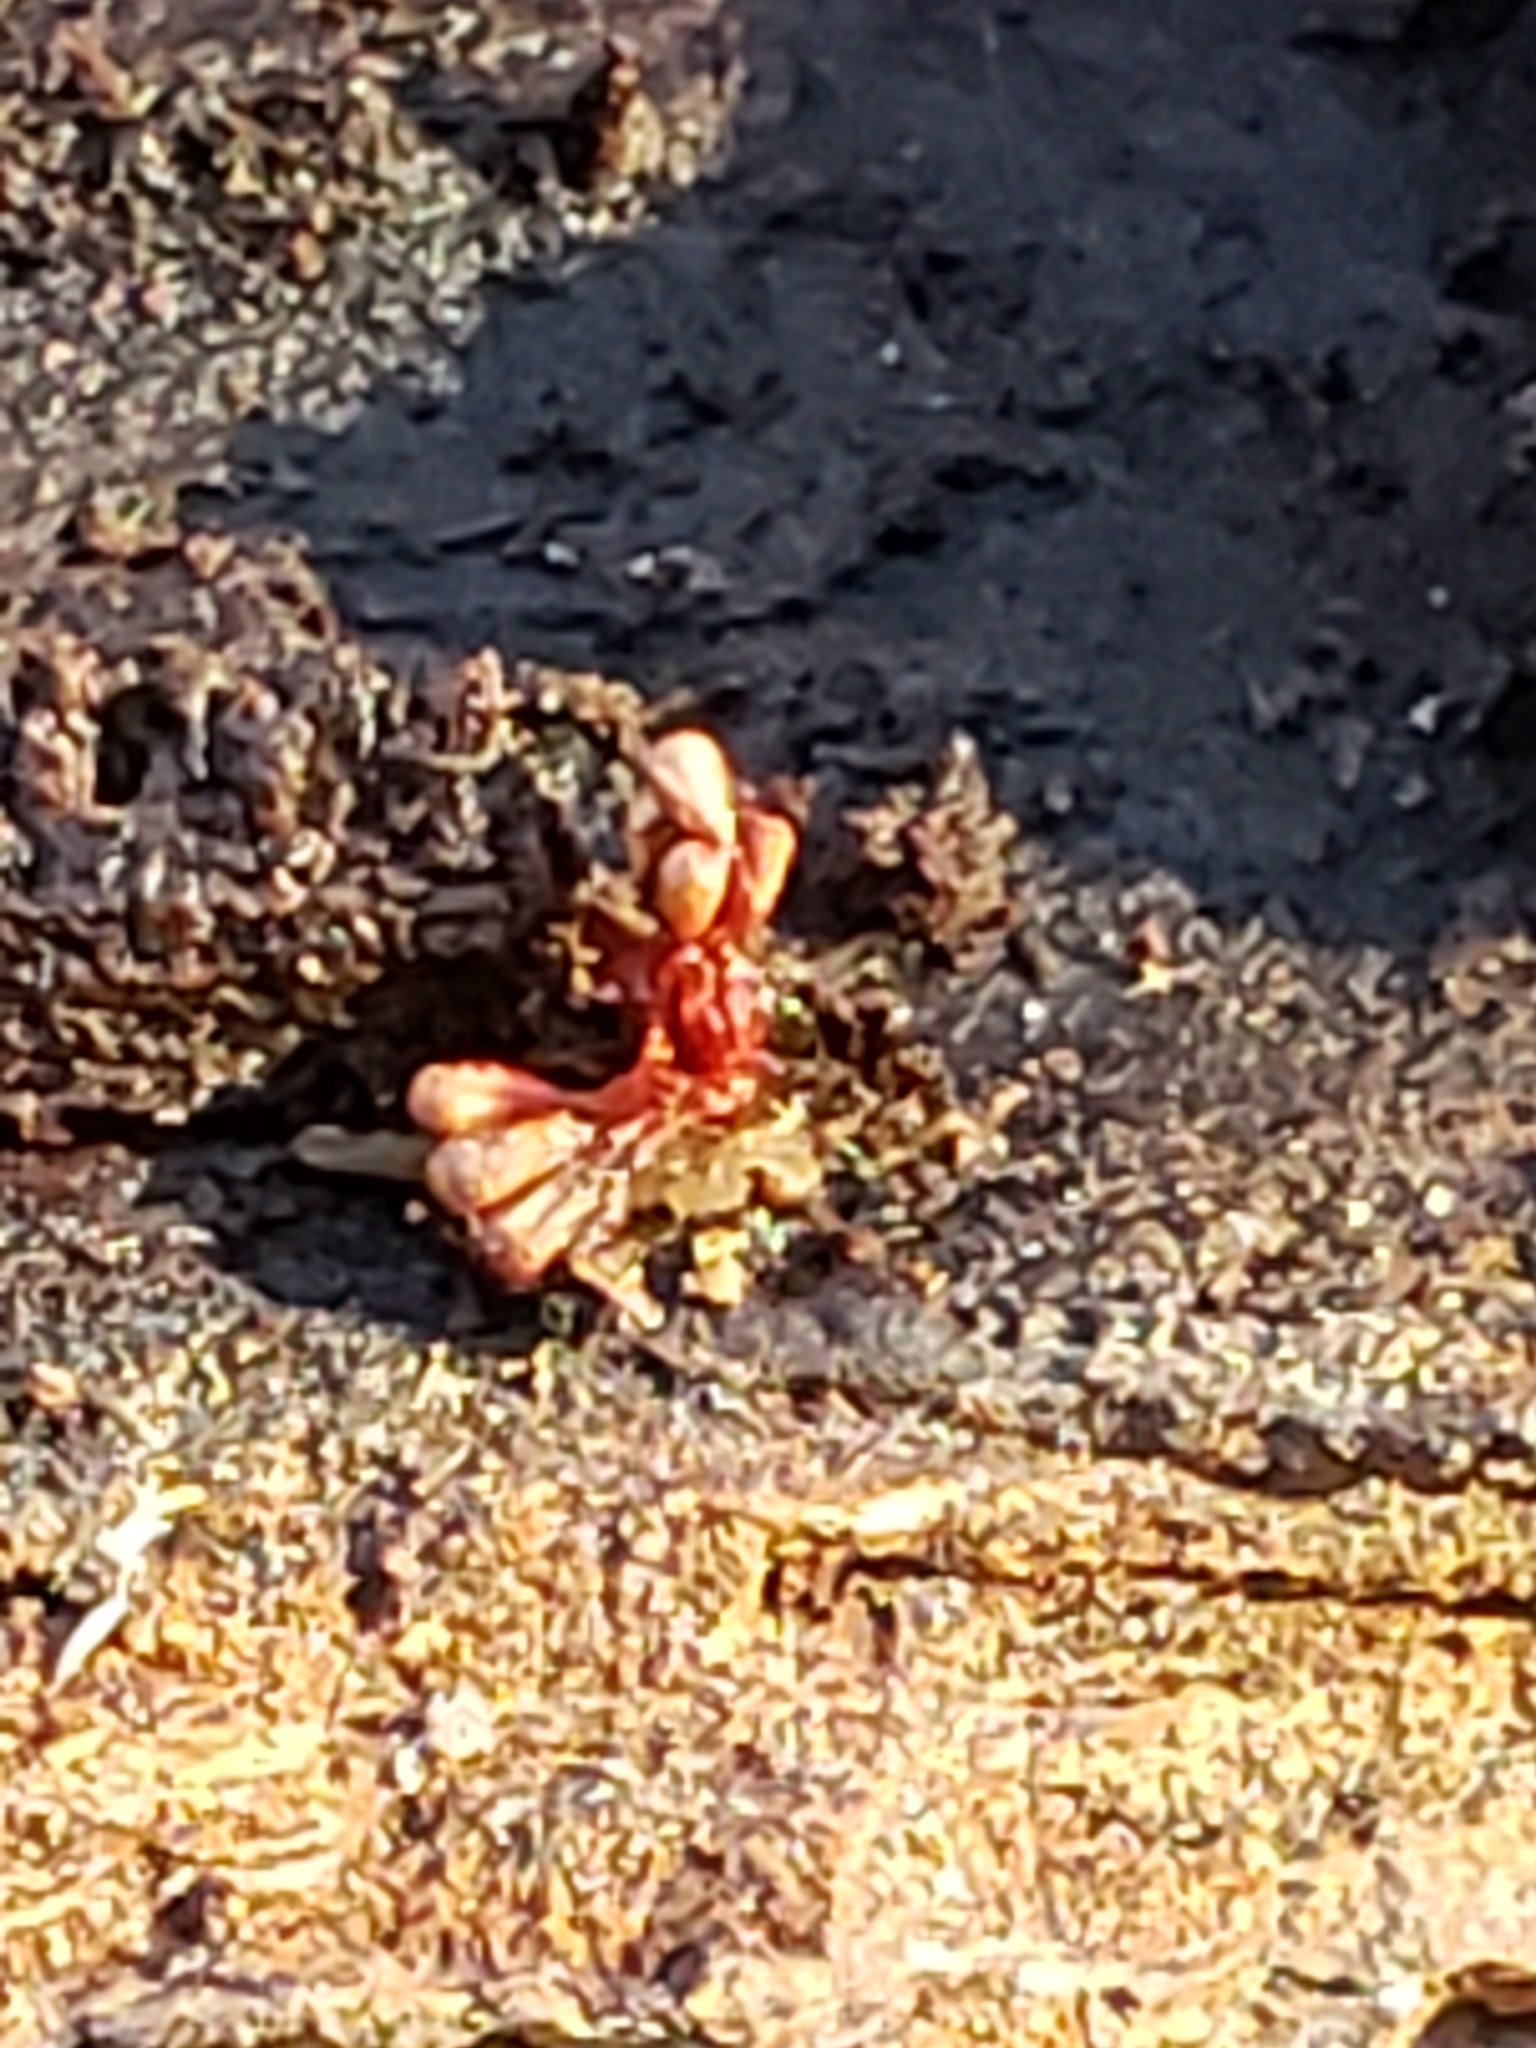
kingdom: Protozoa
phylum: Mycetozoa
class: Myxomycetes
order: Trichiales
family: Trichiaceae
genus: Metatrichia
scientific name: Metatrichia vesparia
